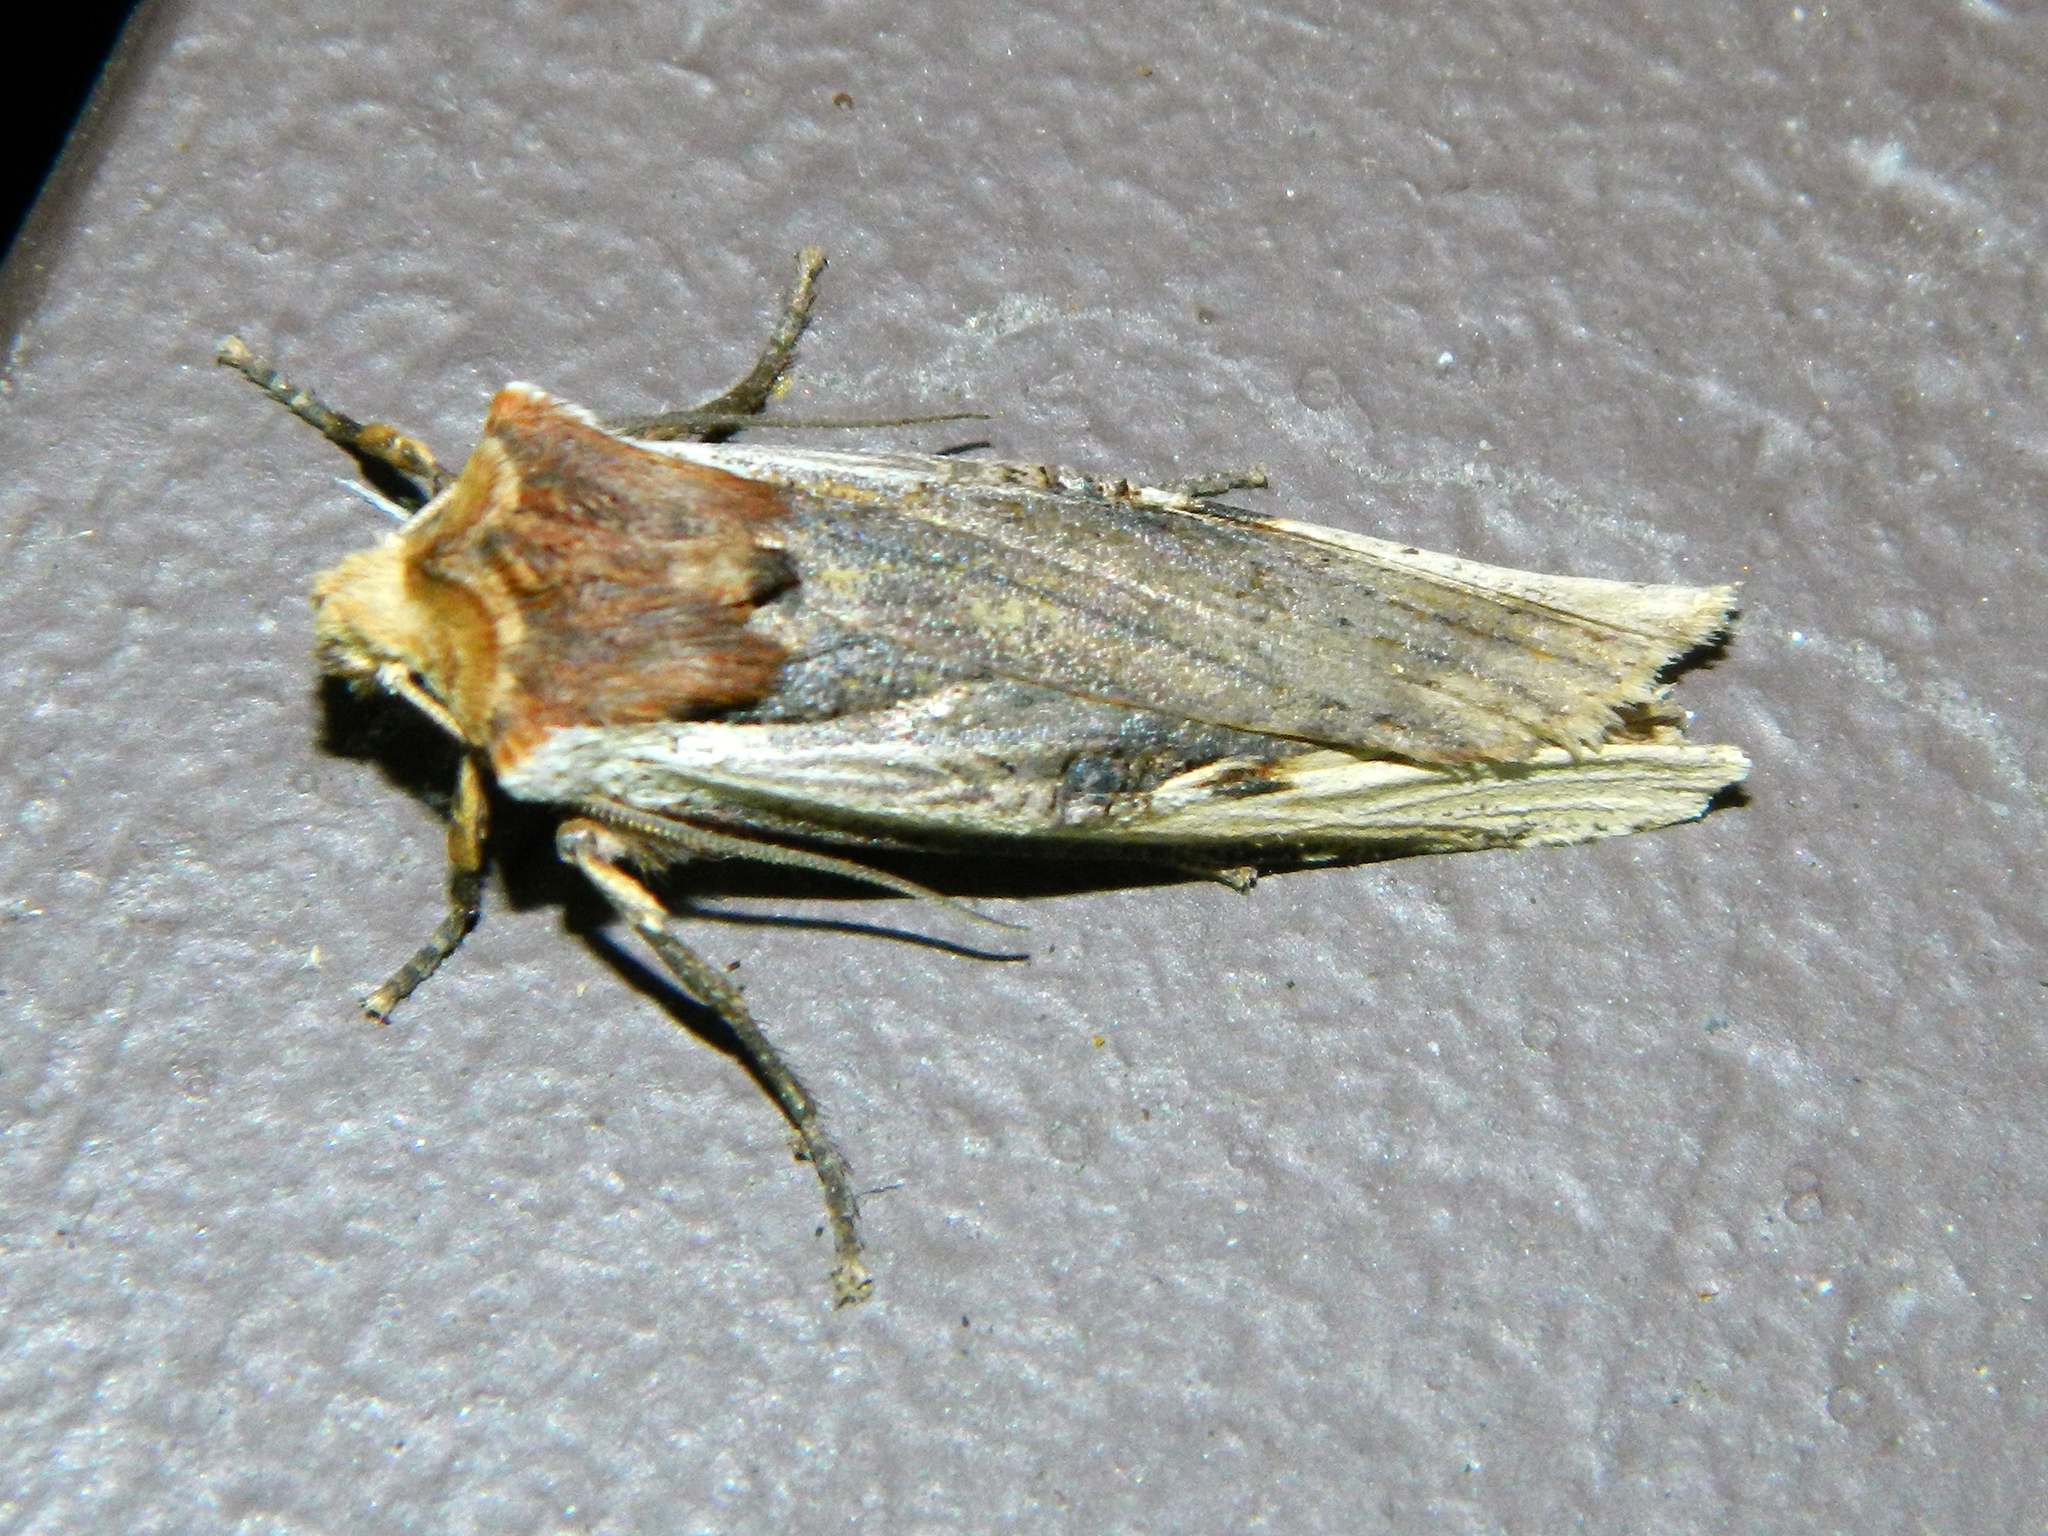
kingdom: Animalia
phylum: Arthropoda
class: Insecta
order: Lepidoptera
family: Noctuidae
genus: Xylena
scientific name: Xylena curvimacula
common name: Dot-and-dash swordgrass moth
